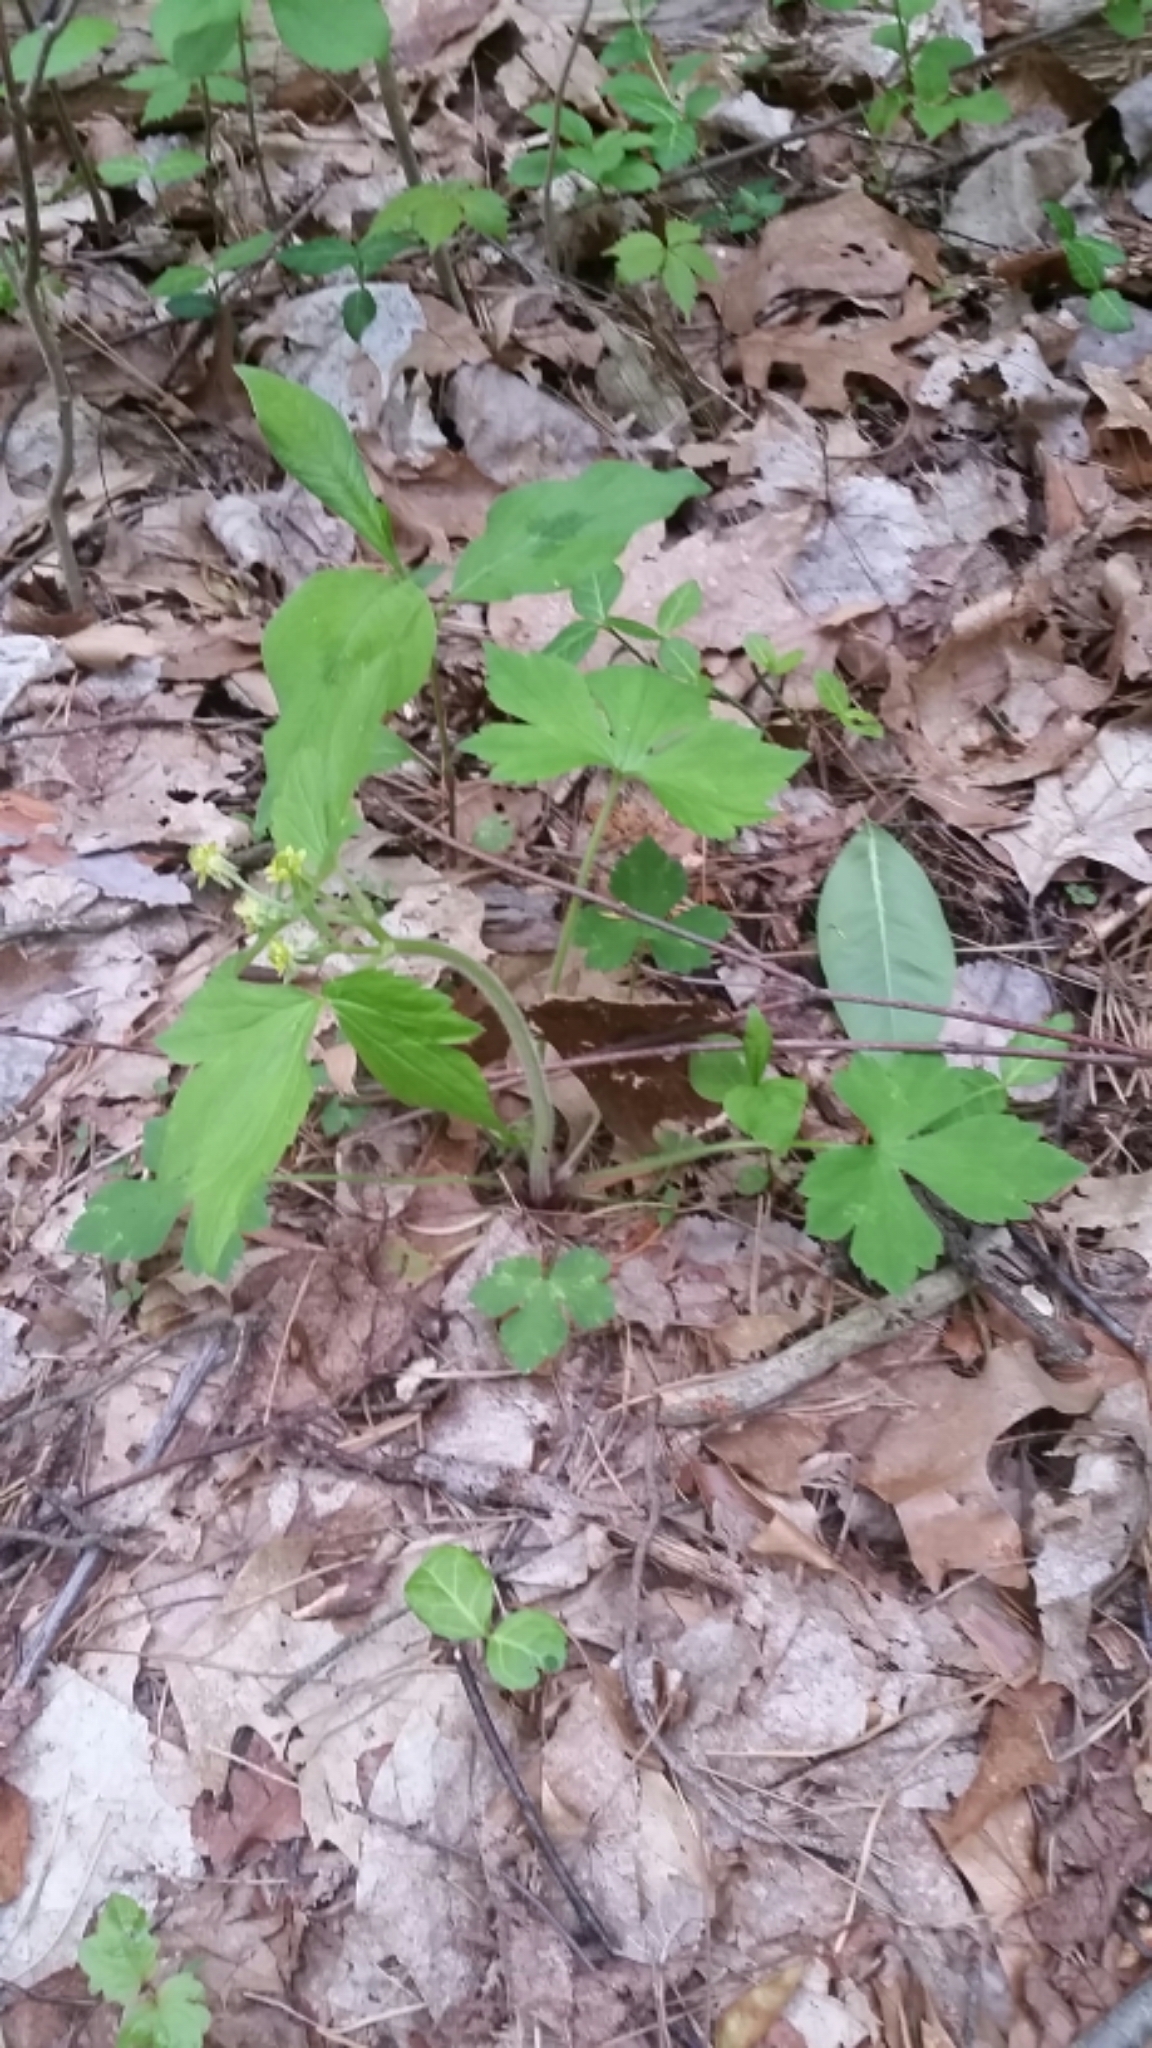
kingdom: Plantae
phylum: Tracheophyta
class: Magnoliopsida
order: Ranunculales
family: Ranunculaceae
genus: Ranunculus
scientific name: Ranunculus recurvatus
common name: Blisterwort
